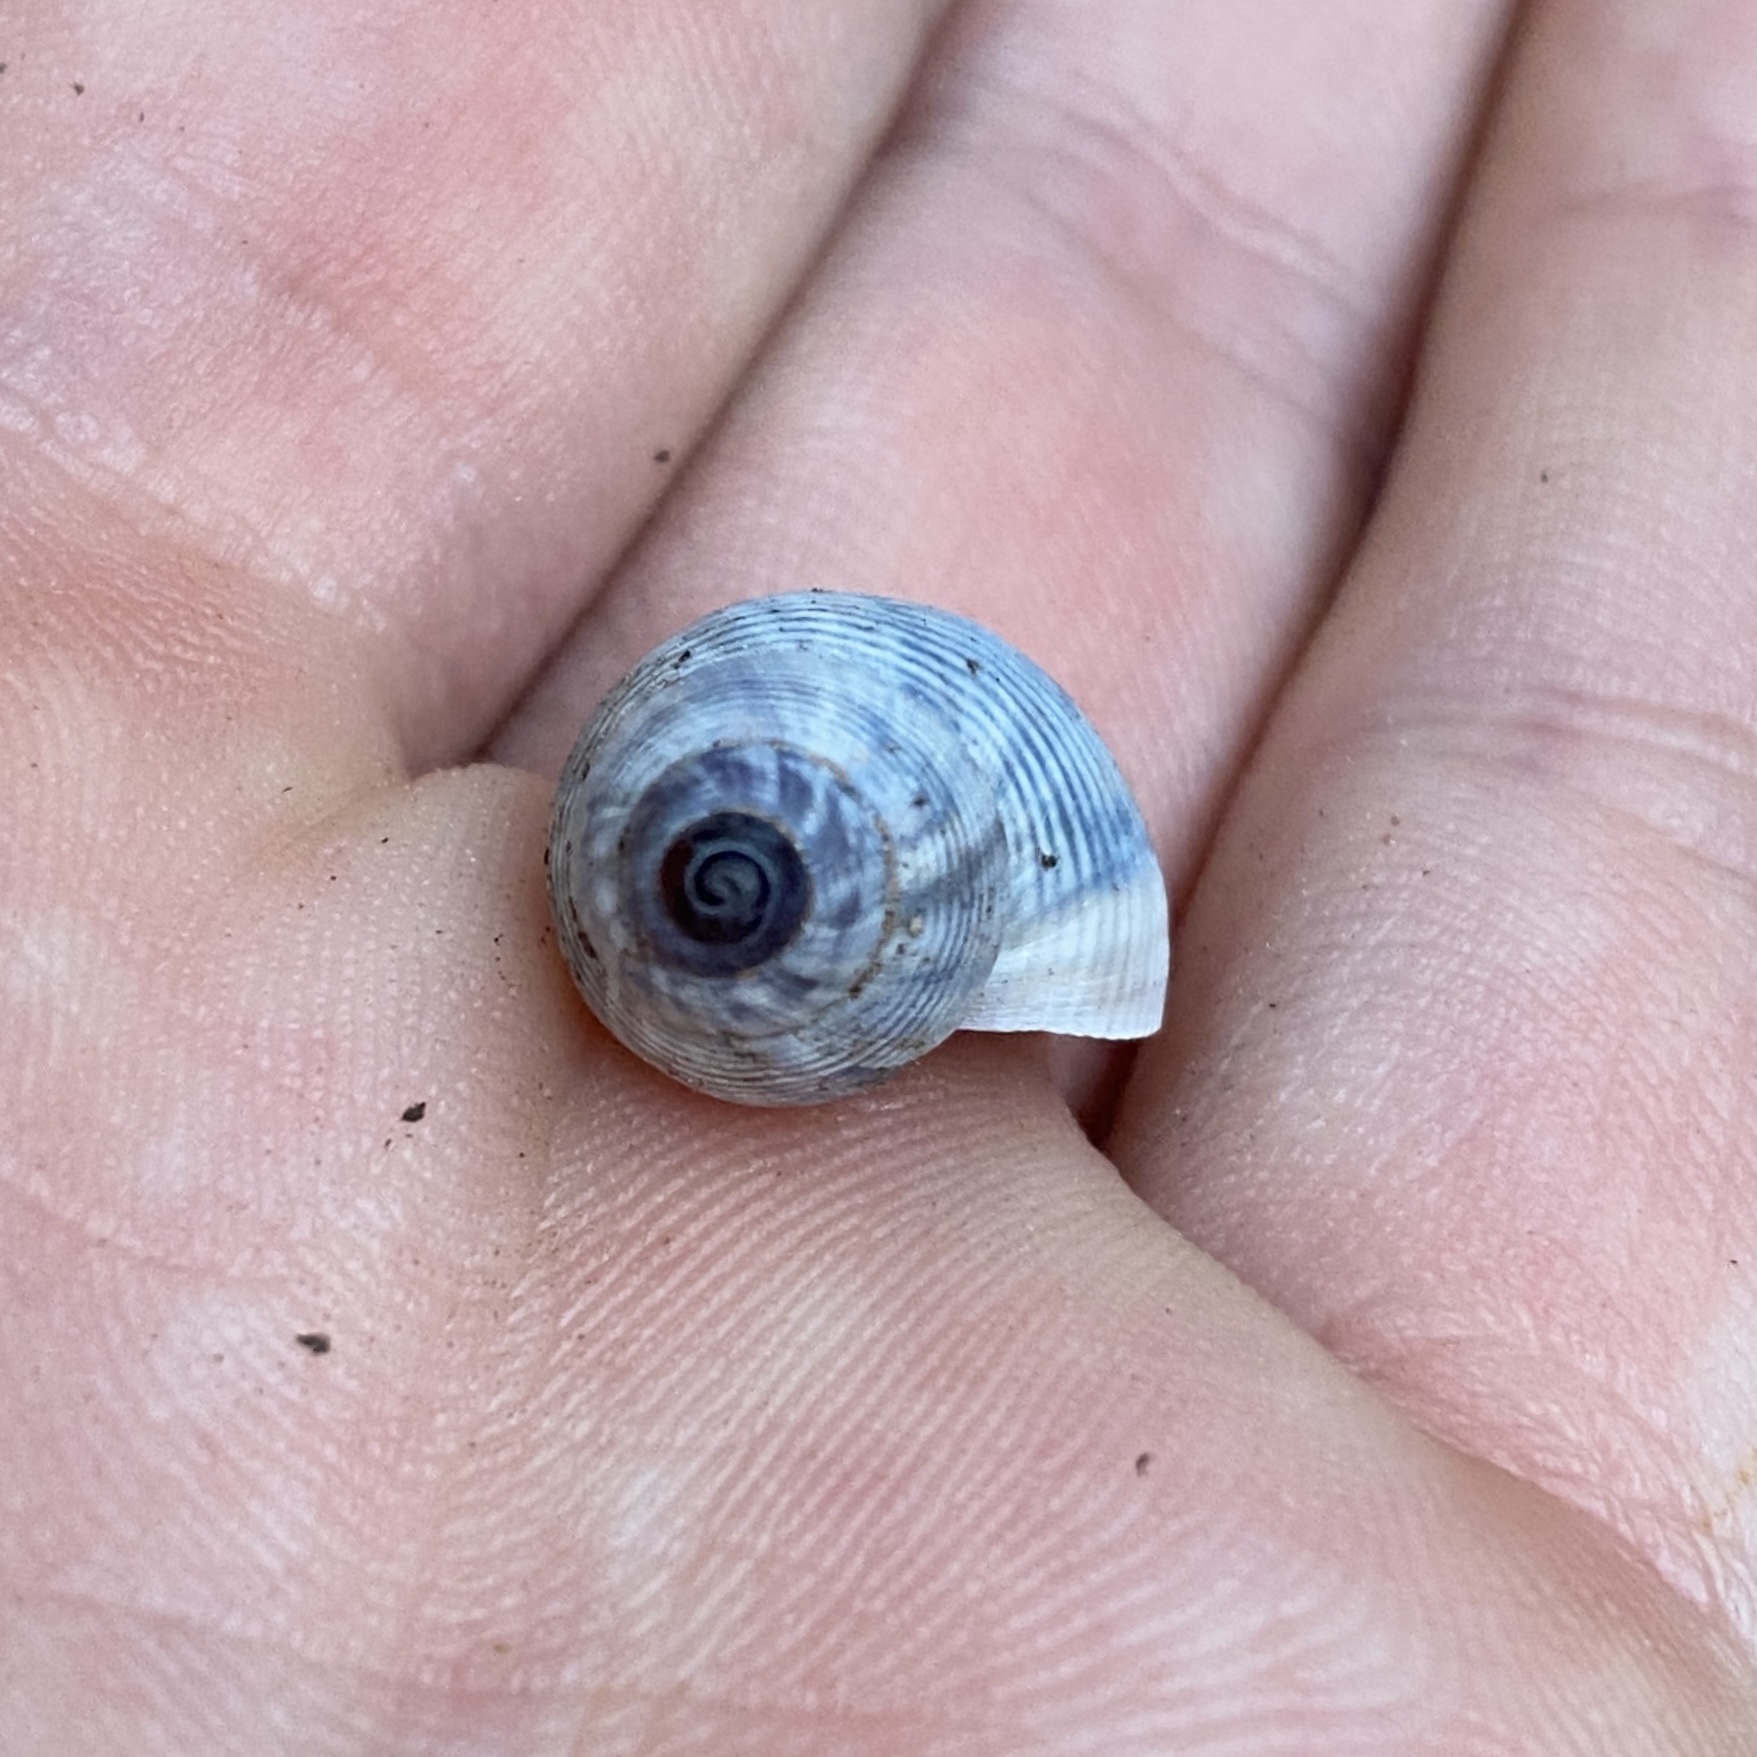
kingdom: Animalia
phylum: Mollusca
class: Gastropoda
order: Littorinimorpha
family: Pomatiidae
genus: Pomatias
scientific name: Pomatias elegans
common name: Red-mouthed snail
